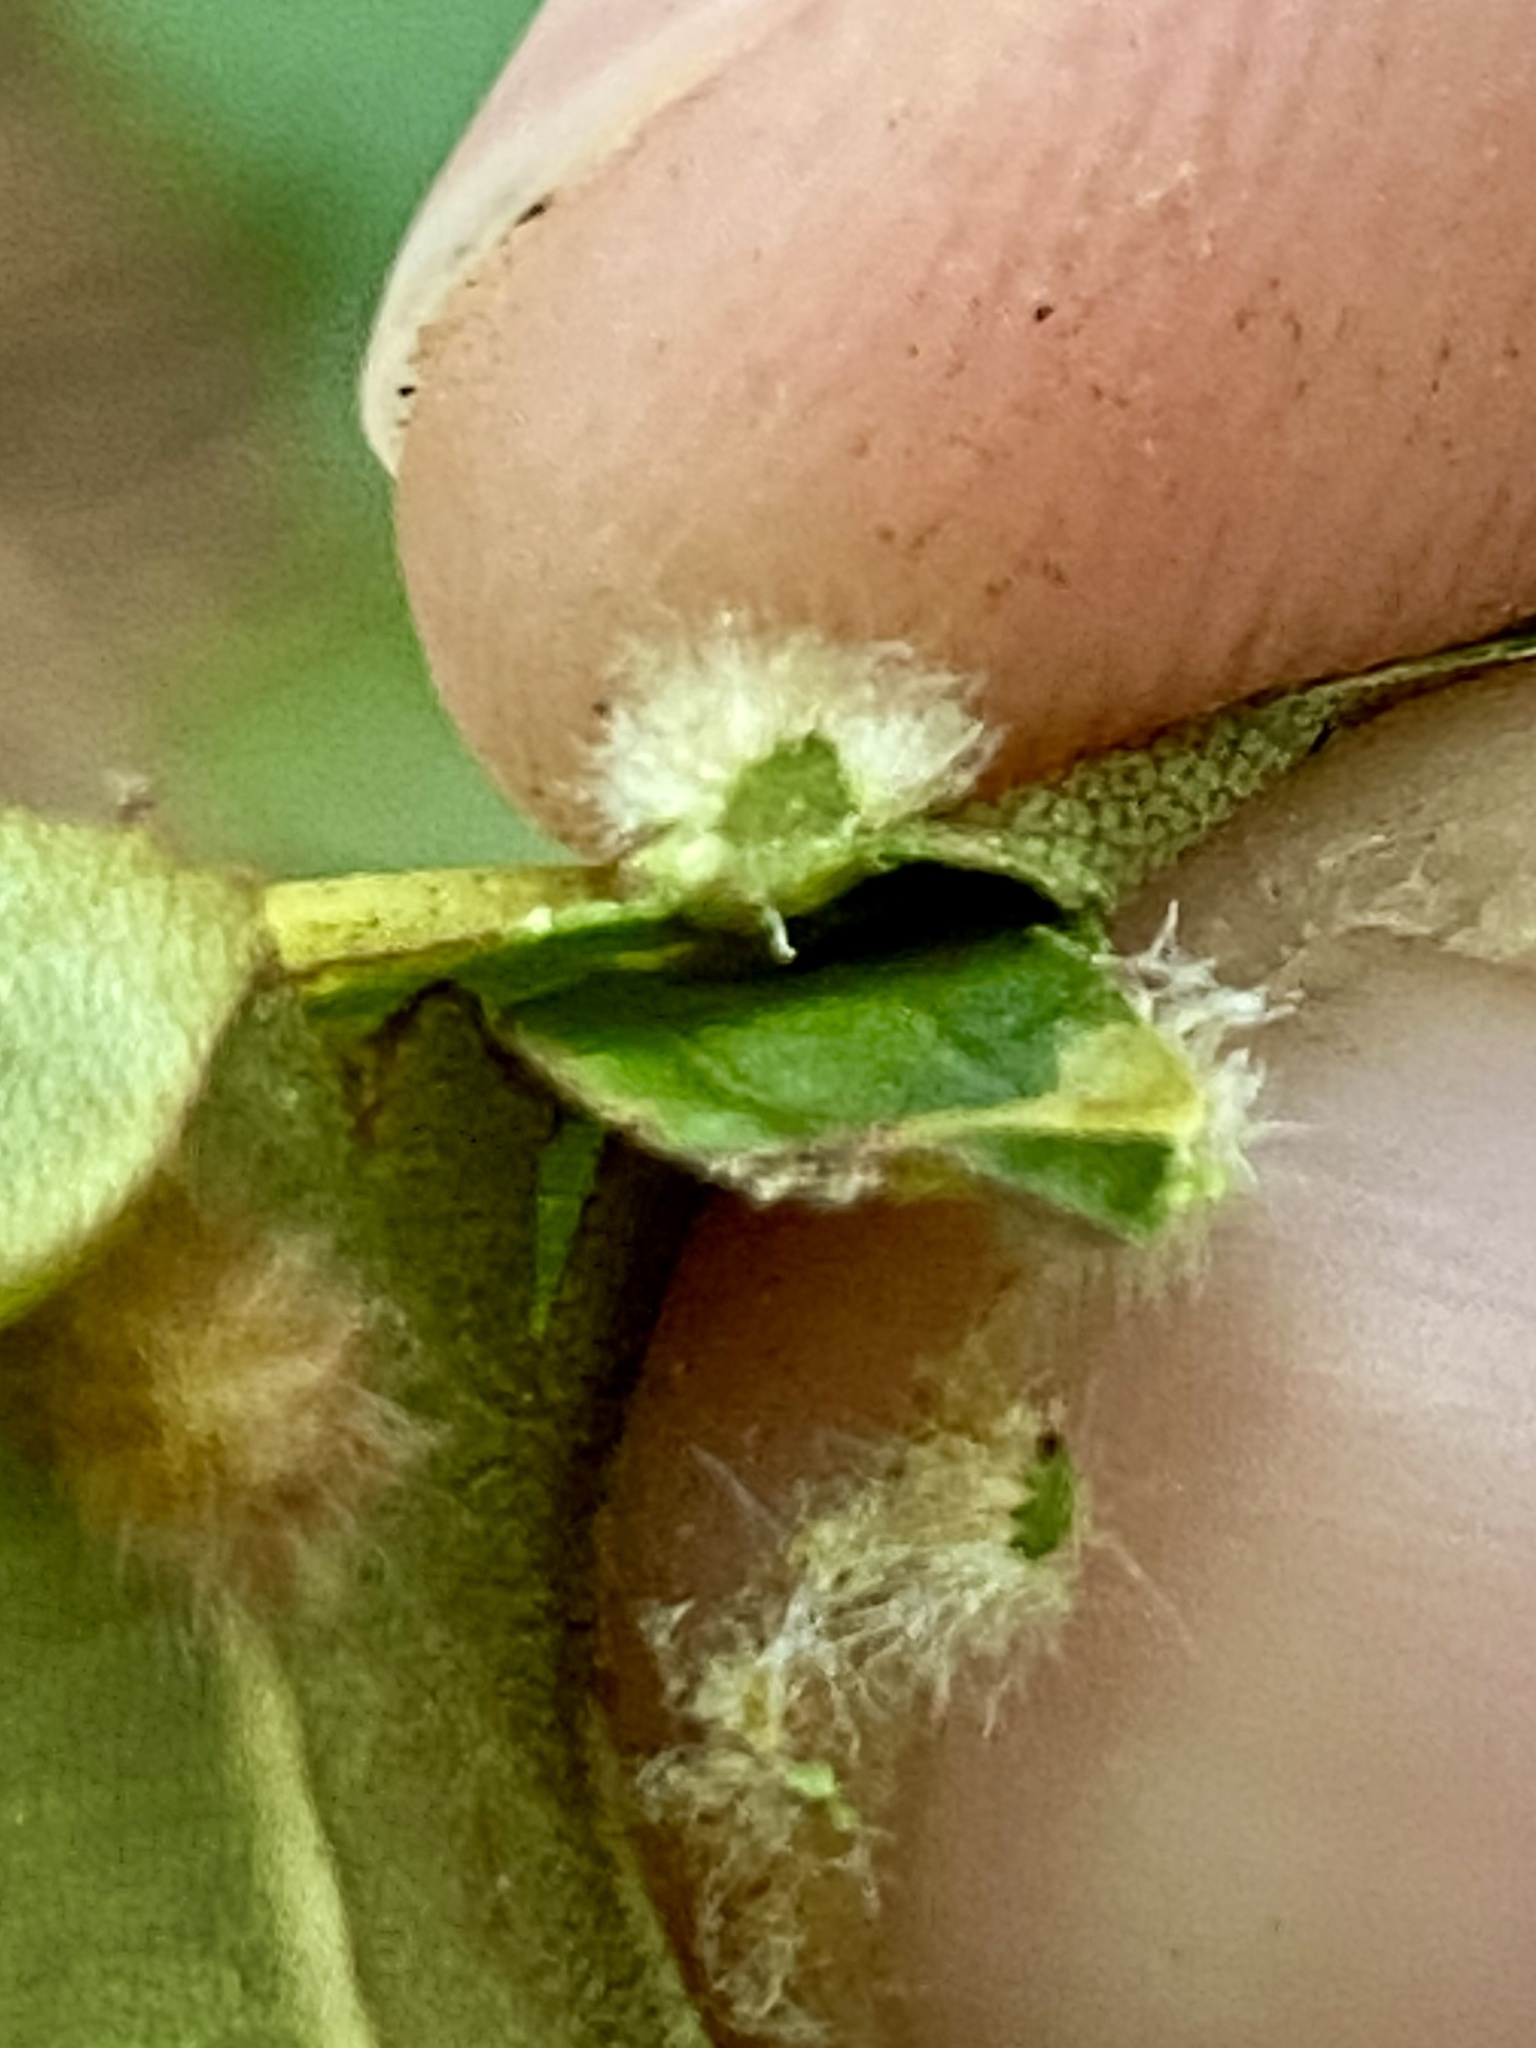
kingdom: Animalia
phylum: Arthropoda
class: Insecta
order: Diptera
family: Cecidomyiidae
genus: Caryomyia
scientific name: Caryomyia aggregata
